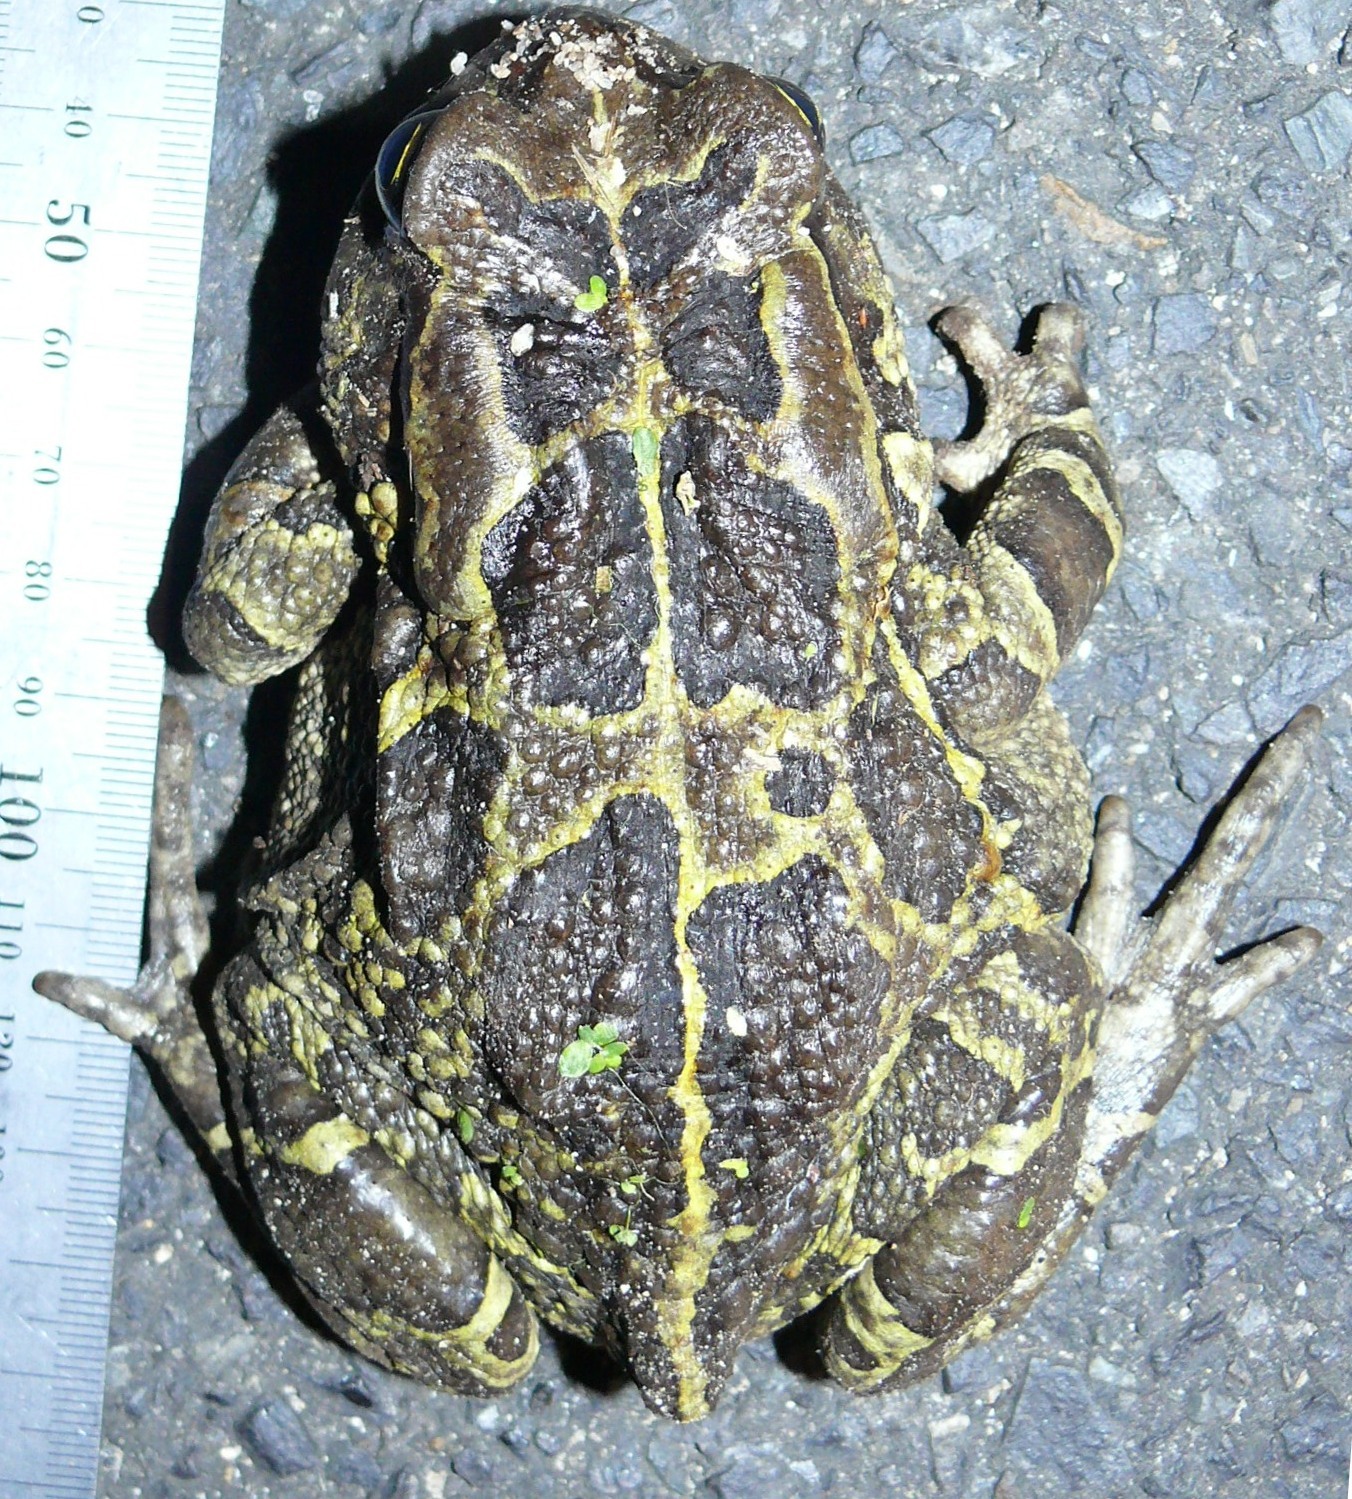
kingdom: Animalia
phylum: Chordata
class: Amphibia
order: Anura
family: Bufonidae
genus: Sclerophrys
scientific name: Sclerophrys pantherina
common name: Panther toad
